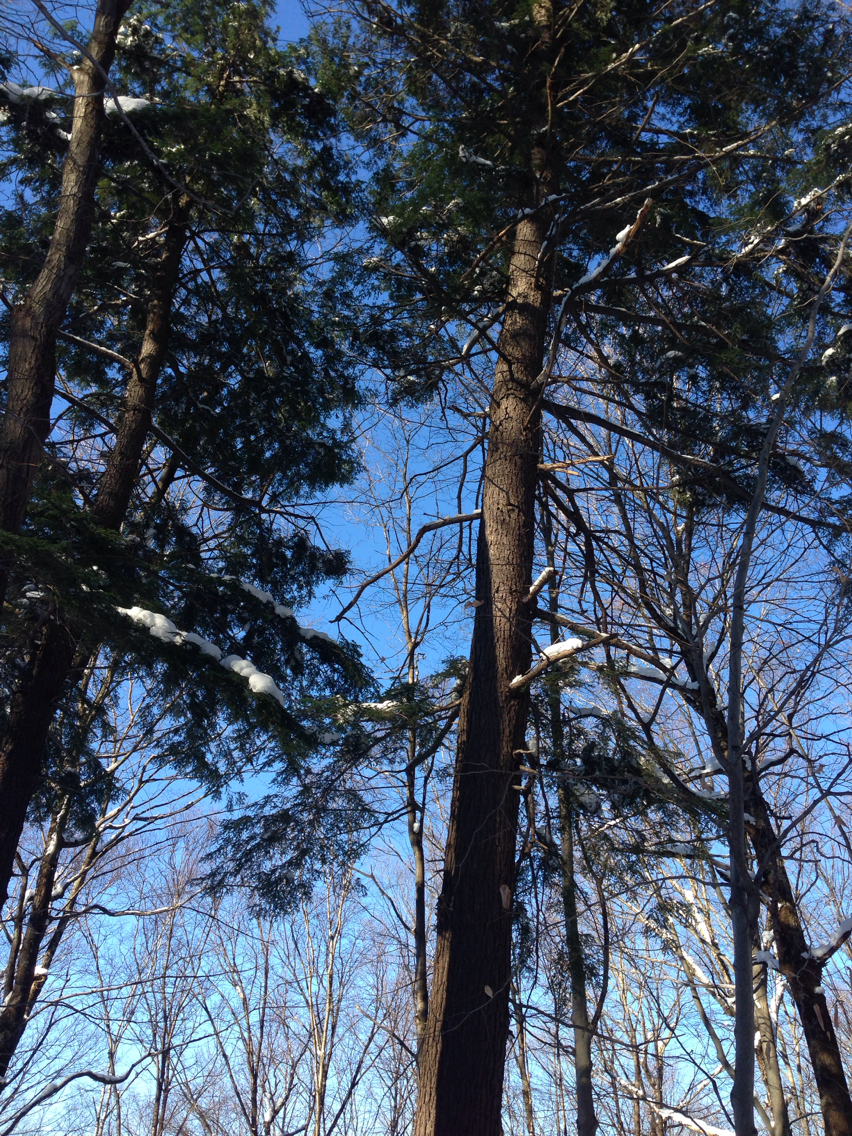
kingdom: Plantae
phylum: Tracheophyta
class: Pinopsida
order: Pinales
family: Pinaceae
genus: Tsuga
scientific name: Tsuga canadensis
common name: Eastern hemlock
